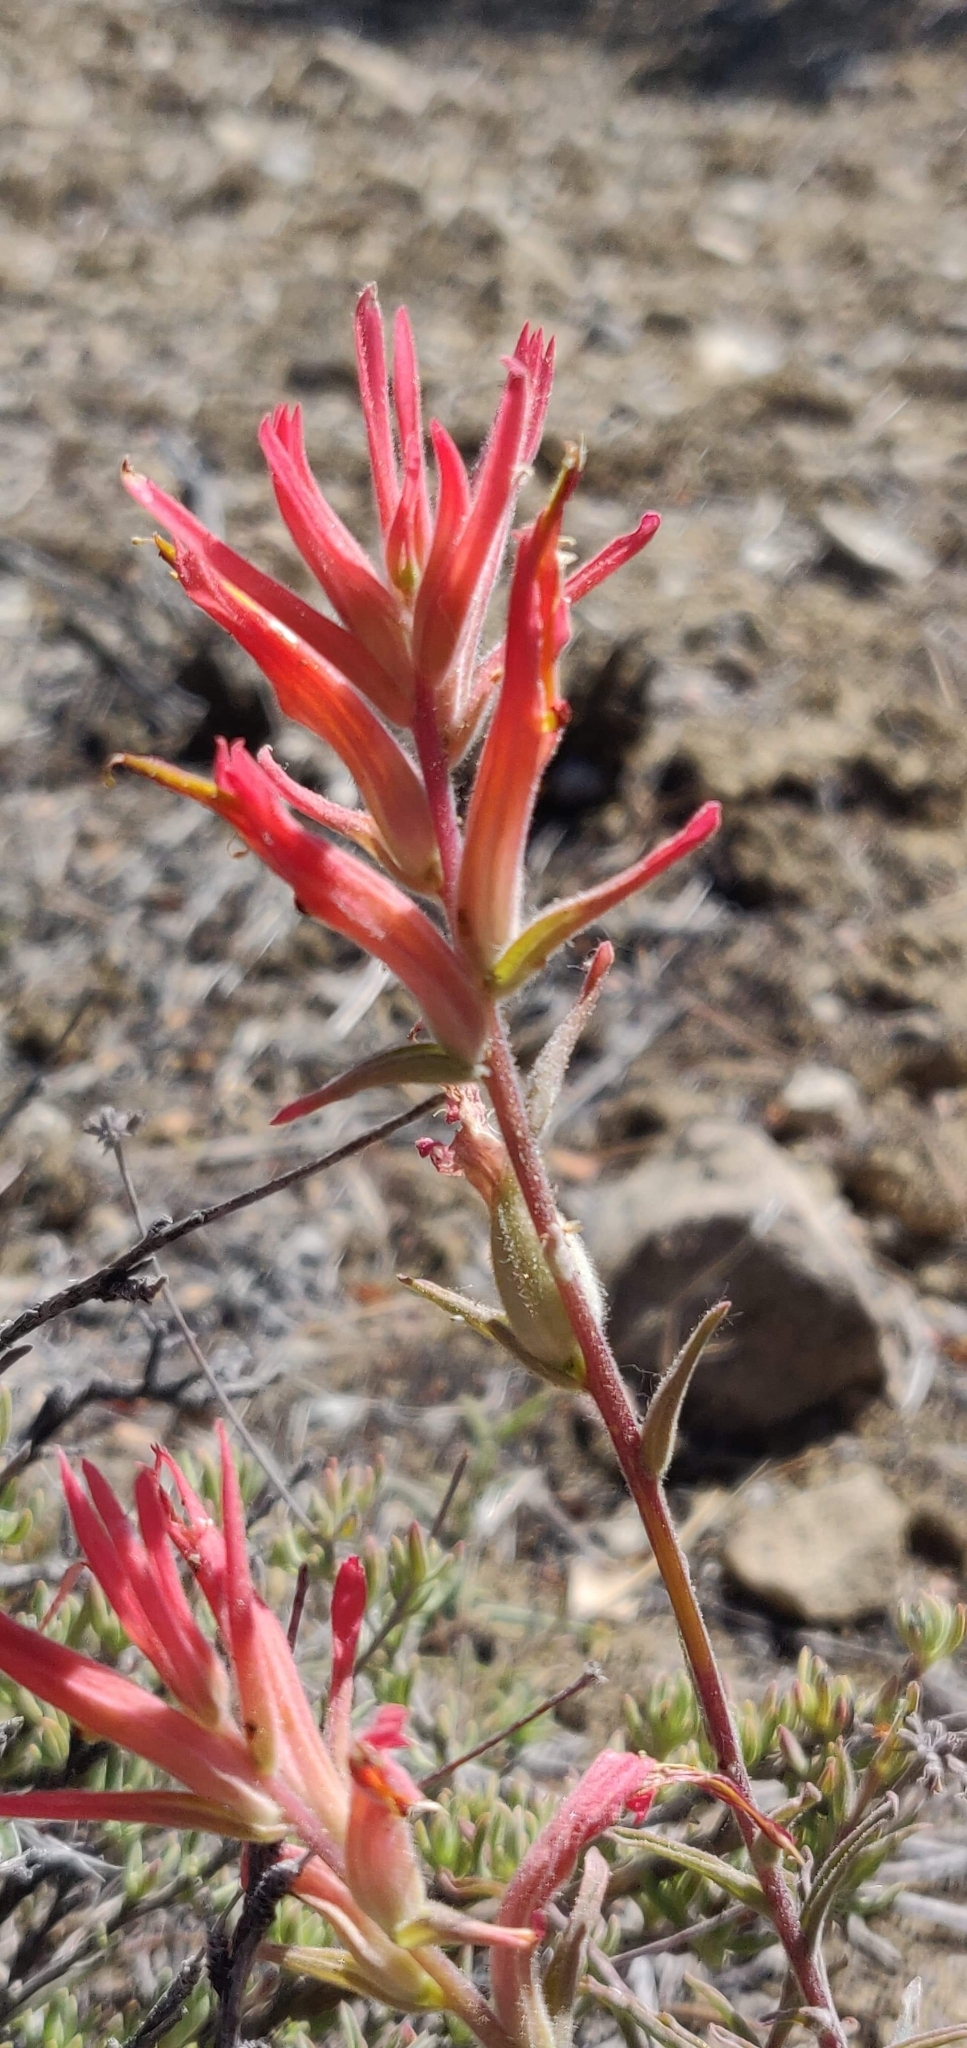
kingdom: Plantae
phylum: Tracheophyta
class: Magnoliopsida
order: Lamiales
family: Orobanchaceae
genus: Castilleja
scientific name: Castilleja subinclusa
